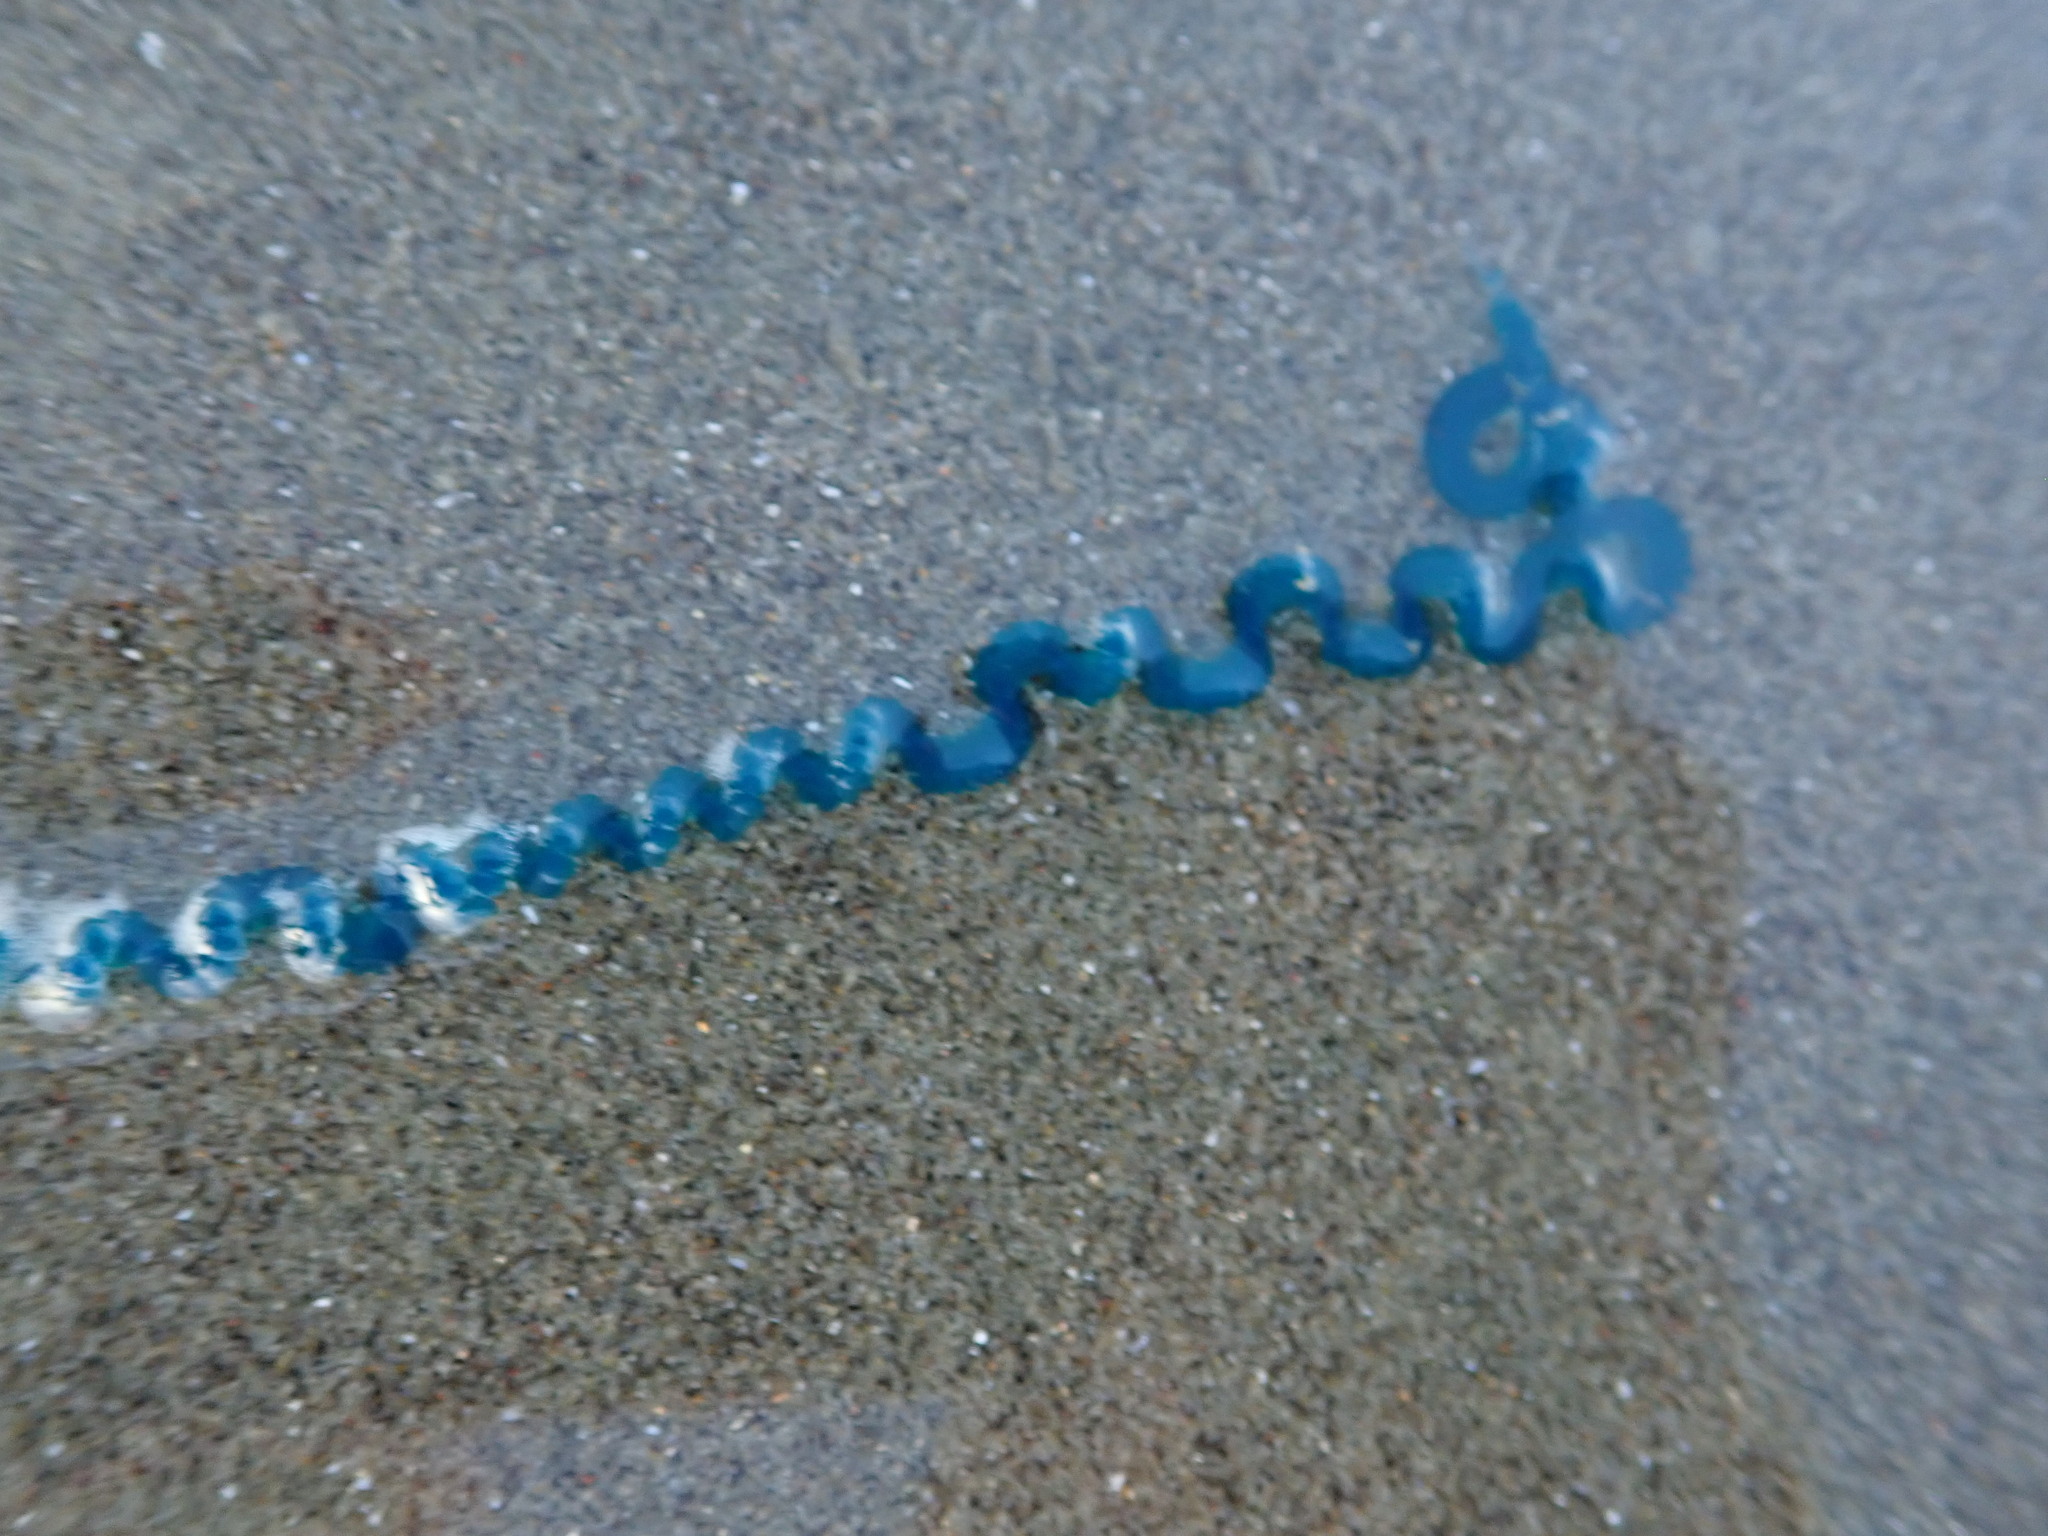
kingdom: Animalia
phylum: Cnidaria
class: Hydrozoa
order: Siphonophorae
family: Physaliidae
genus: Physalia
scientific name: Physalia physalis
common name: Portuguese man-of-war
